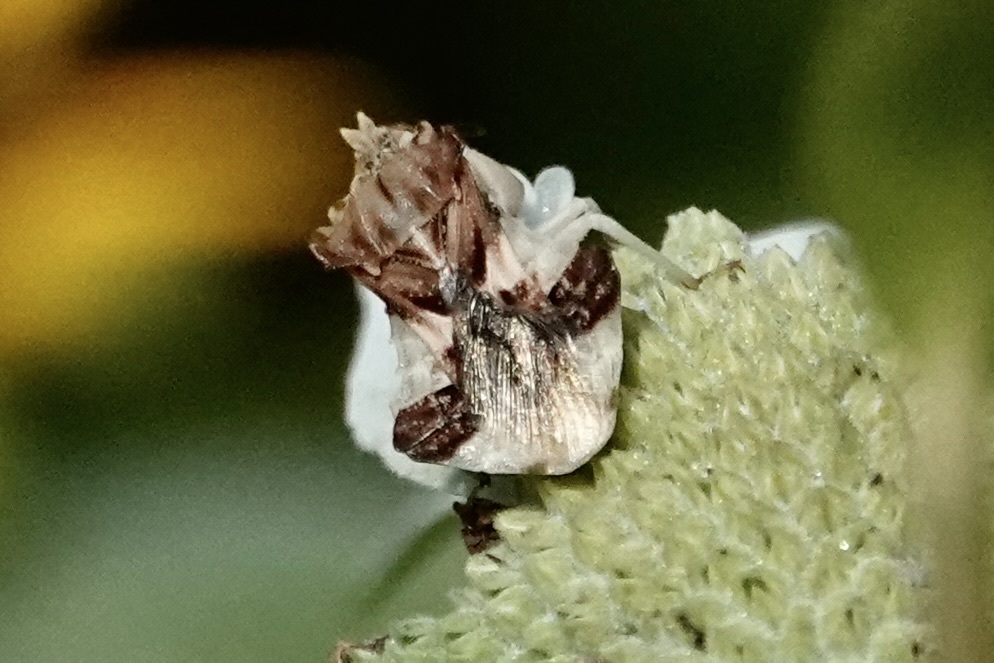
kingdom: Animalia
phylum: Arthropoda
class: Insecta
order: Hemiptera
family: Reduviidae
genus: Phymata
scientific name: Phymata fasciata
